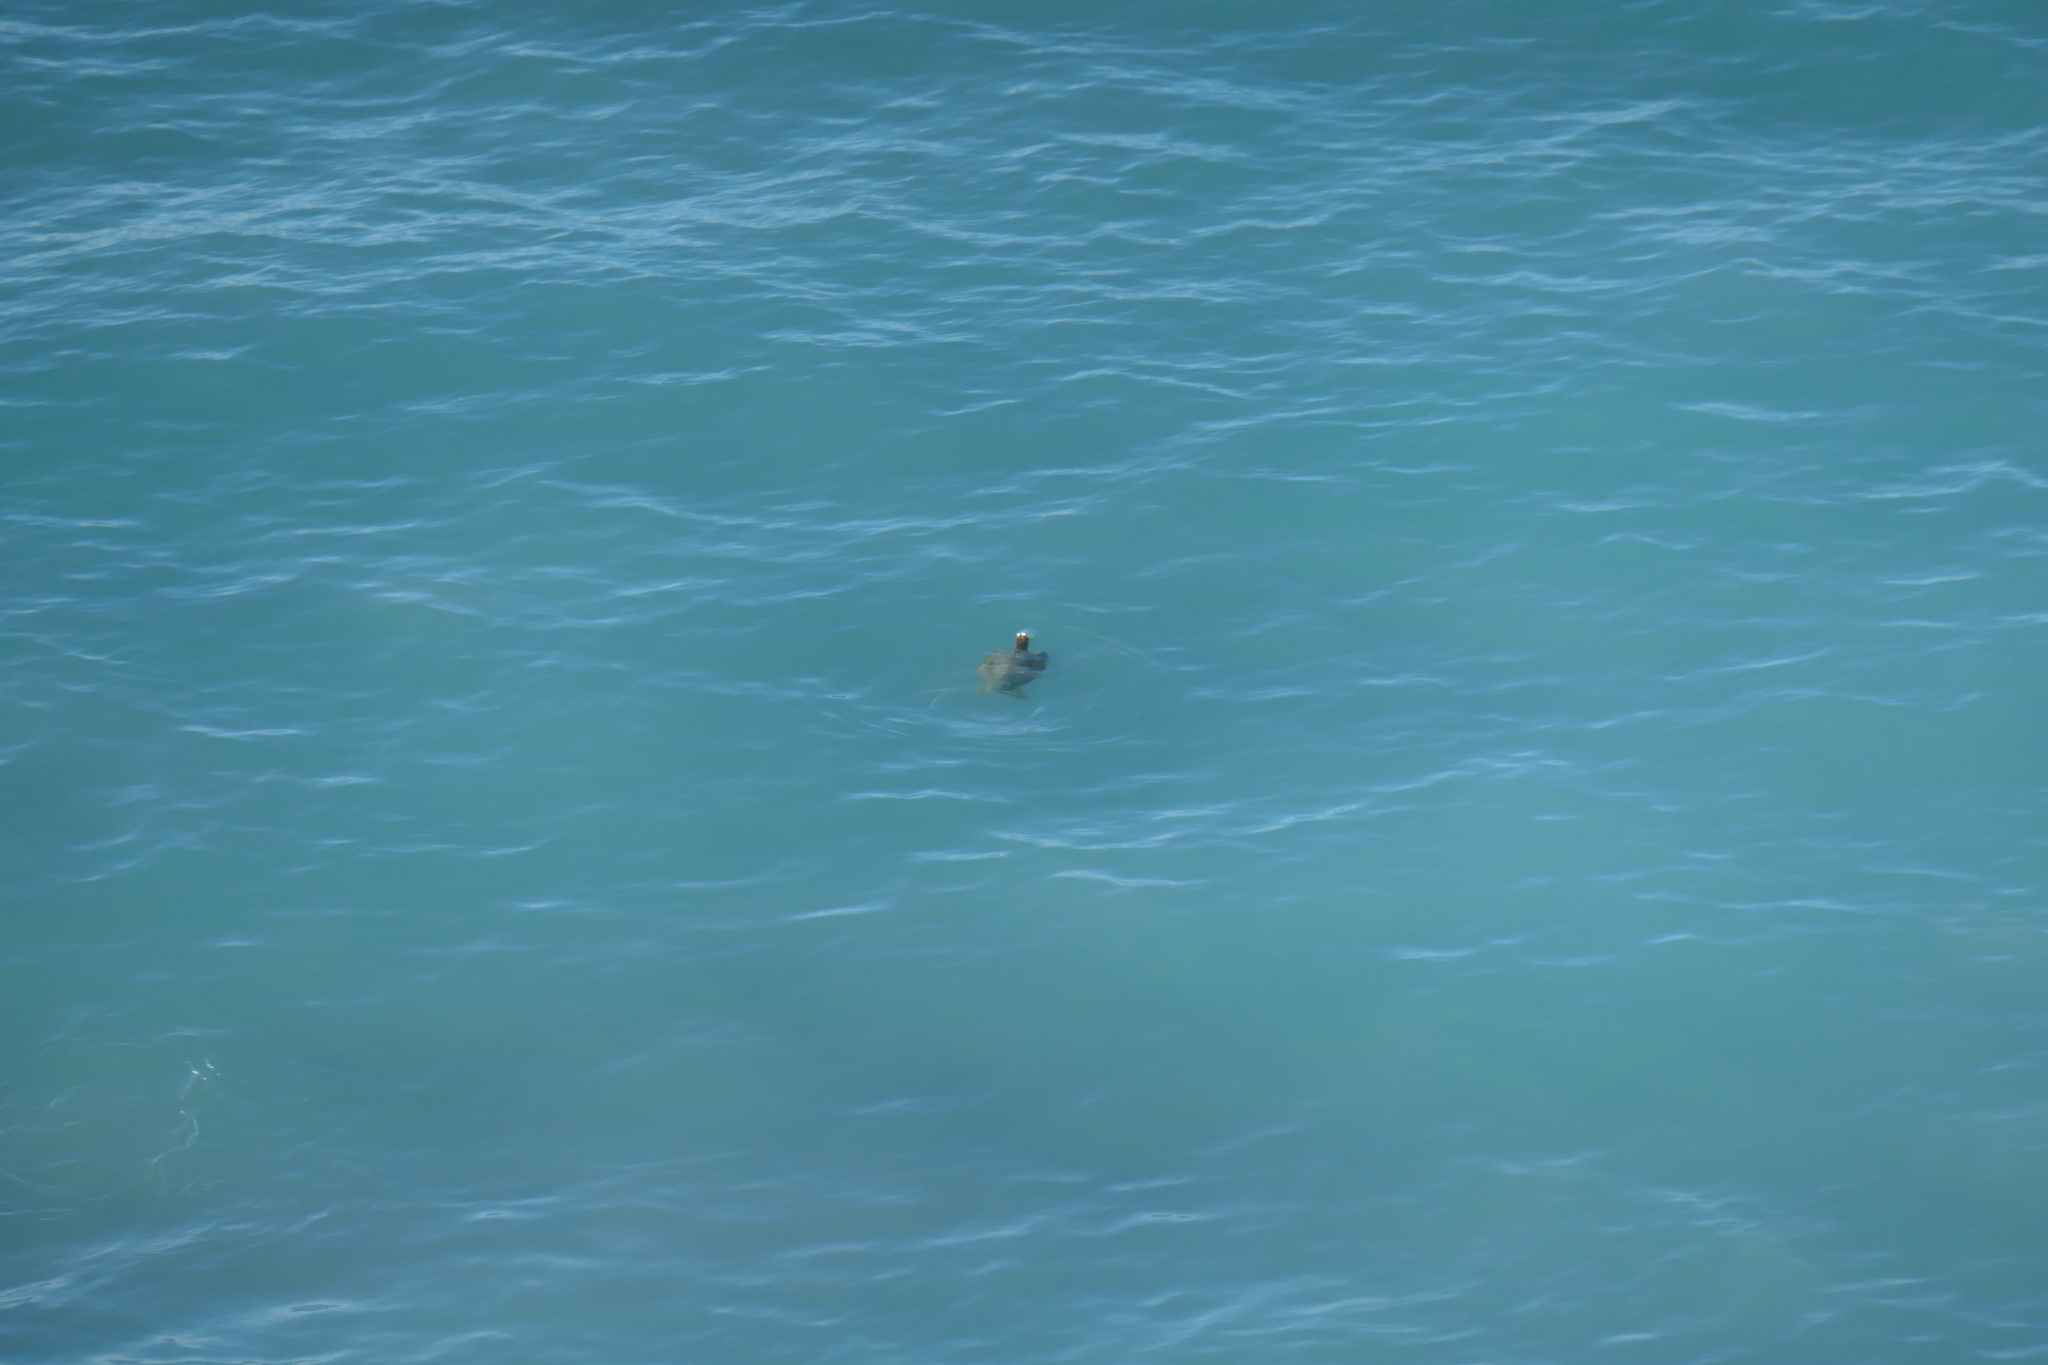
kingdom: Animalia
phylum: Chordata
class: Testudines
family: Cheloniidae
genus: Chelonia
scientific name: Chelonia mydas
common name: Green turtle
